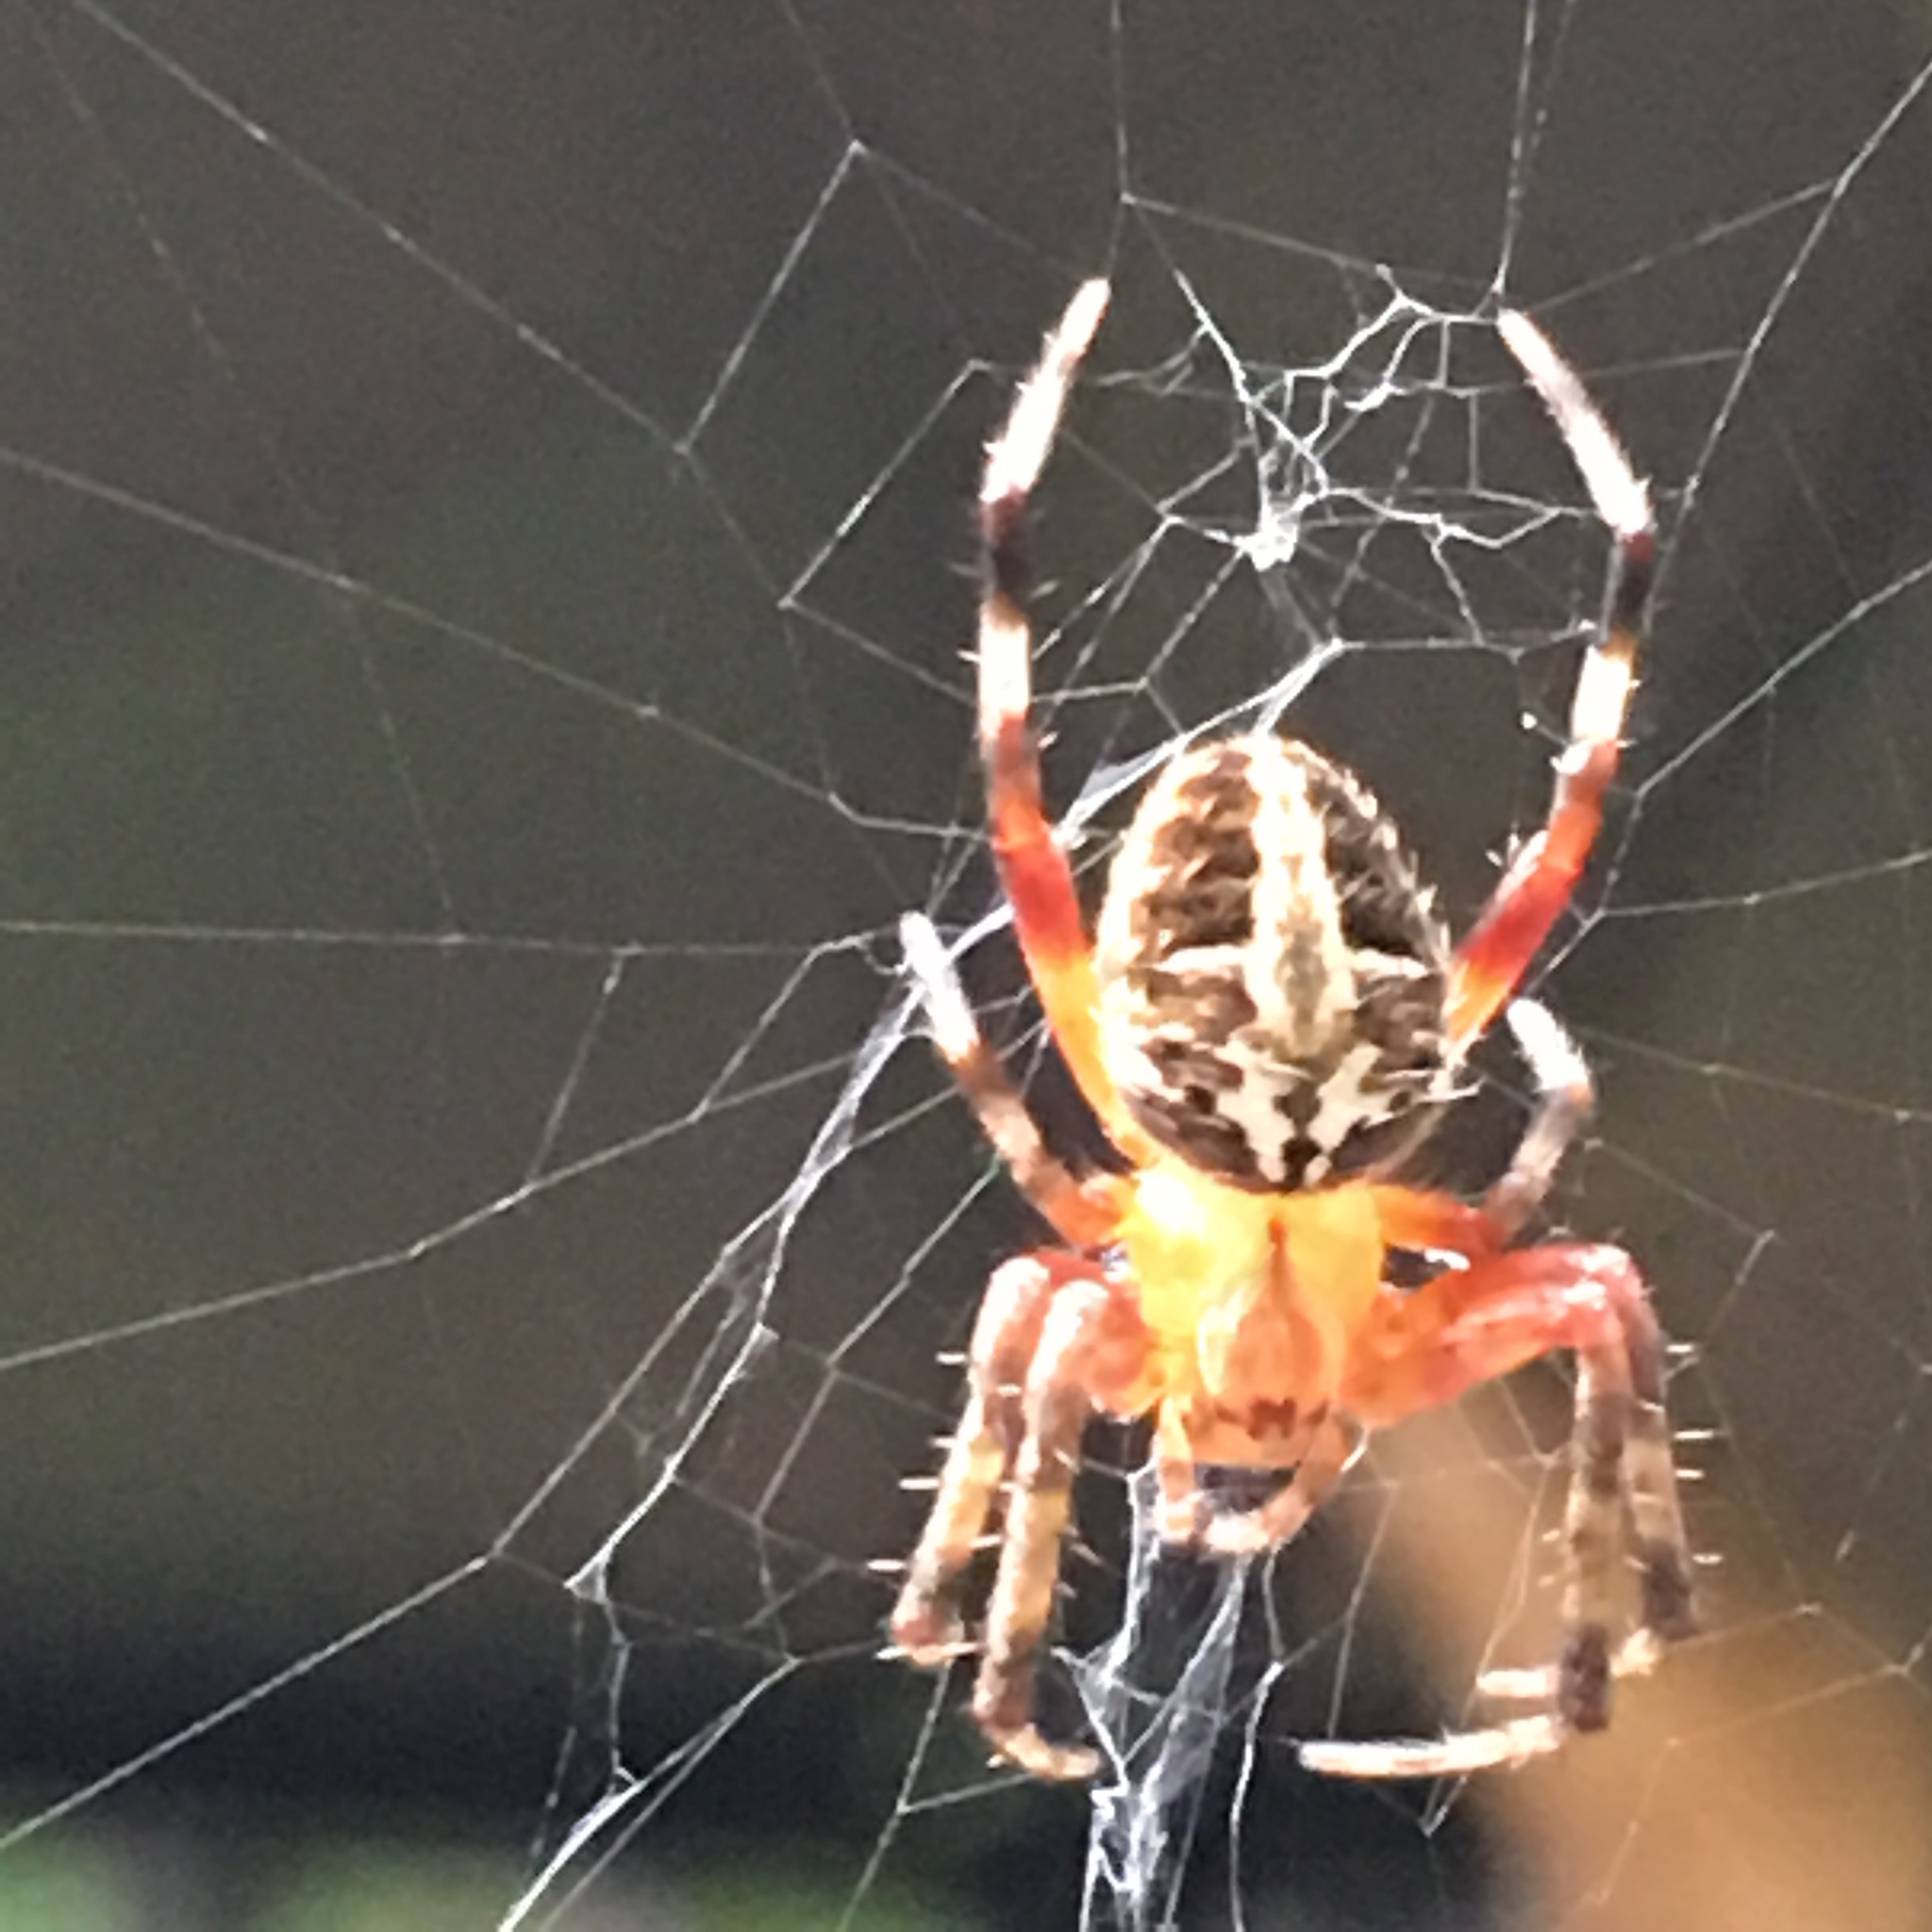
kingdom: Animalia
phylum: Arthropoda
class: Arachnida
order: Araneae
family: Araneidae
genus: Neoscona
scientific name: Neoscona domiciliorum
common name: Red-femured spotted orbweaver
